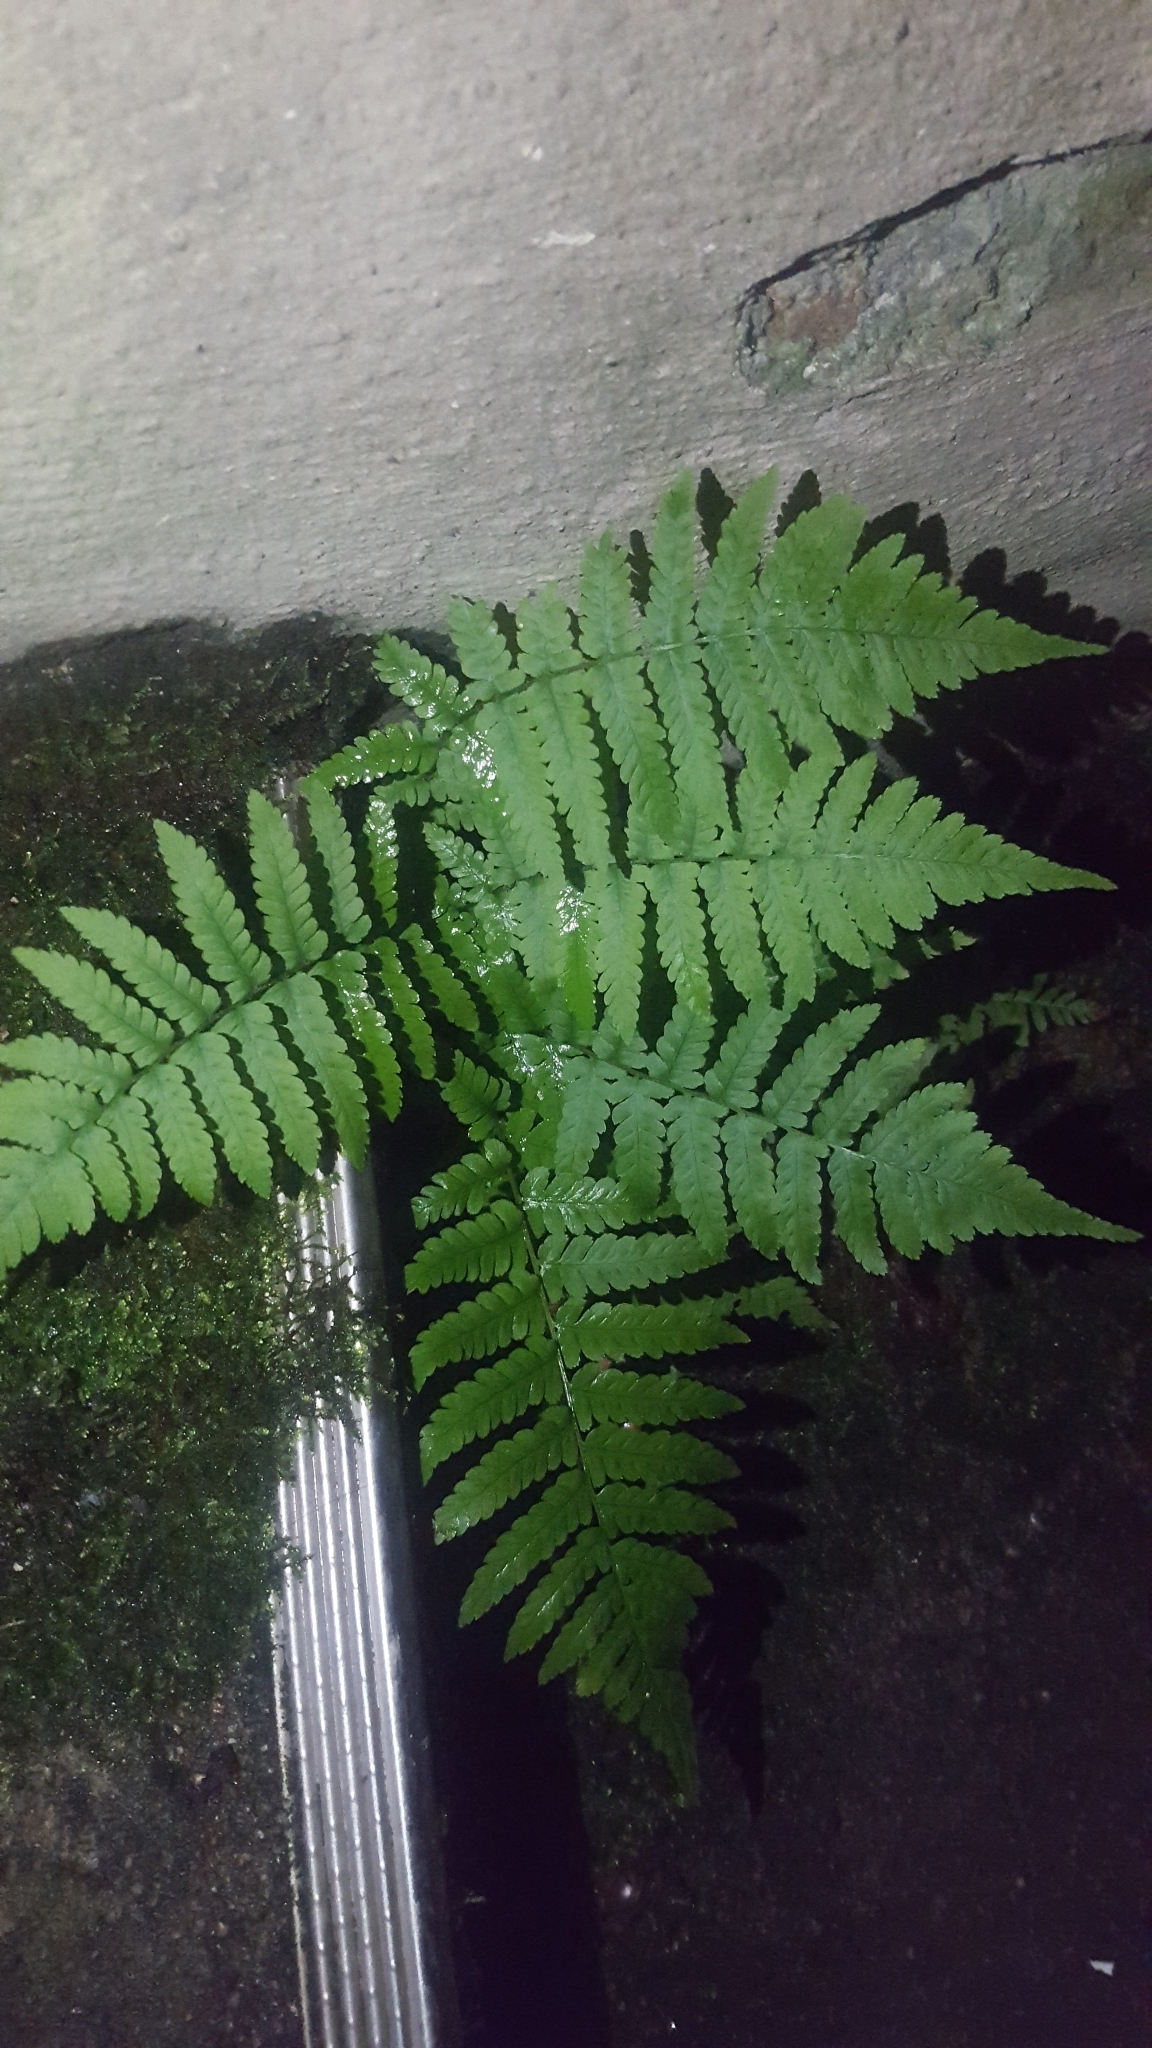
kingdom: Plantae
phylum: Tracheophyta
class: Polypodiopsida
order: Polypodiales
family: Dryopteridaceae
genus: Dryopteris
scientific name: Dryopteris filix-mas
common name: Male fern
